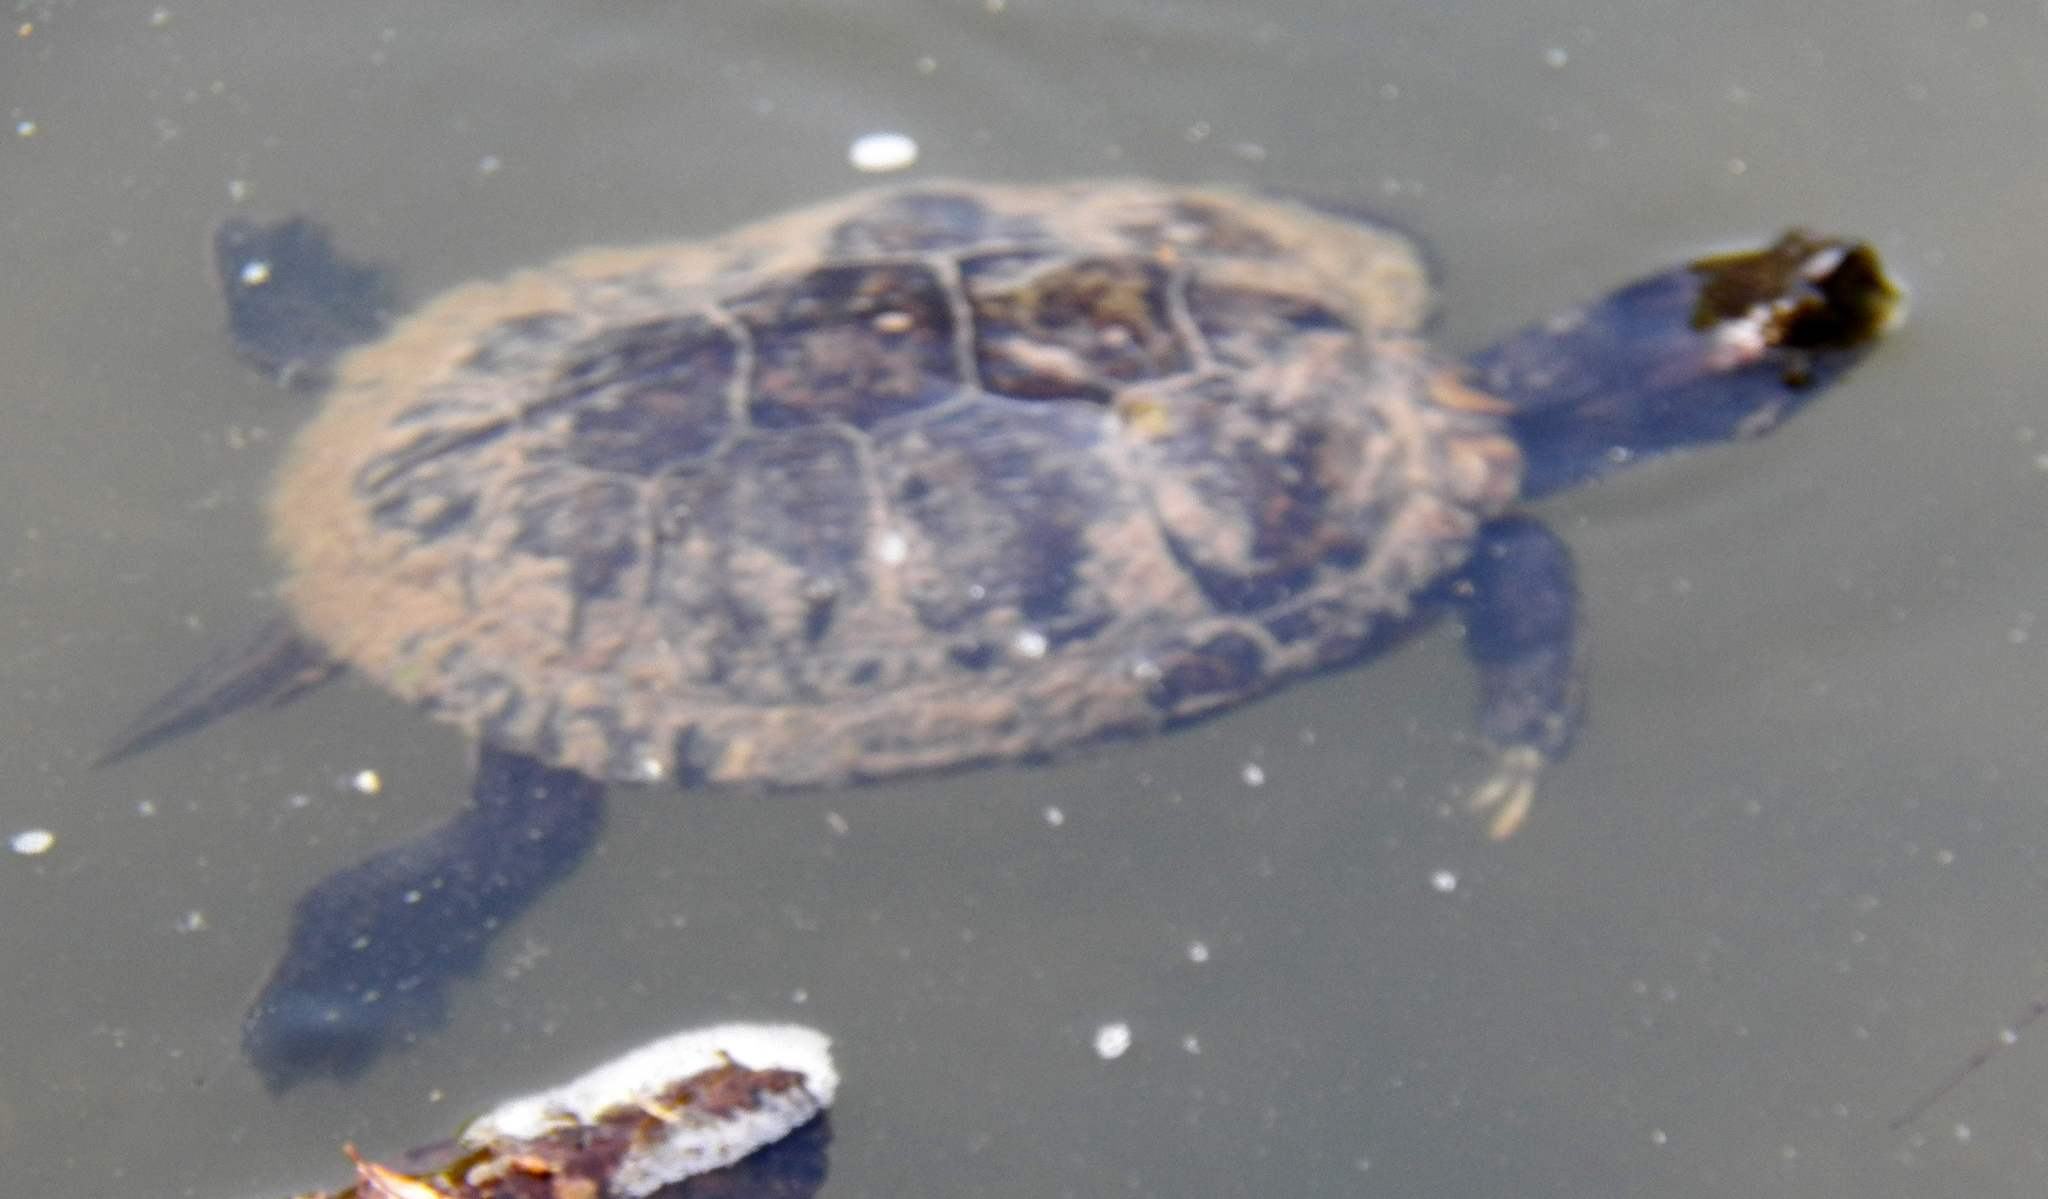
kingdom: Animalia
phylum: Chordata
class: Testudines
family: Emydidae
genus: Trachemys
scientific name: Trachemys scripta
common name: Slider
